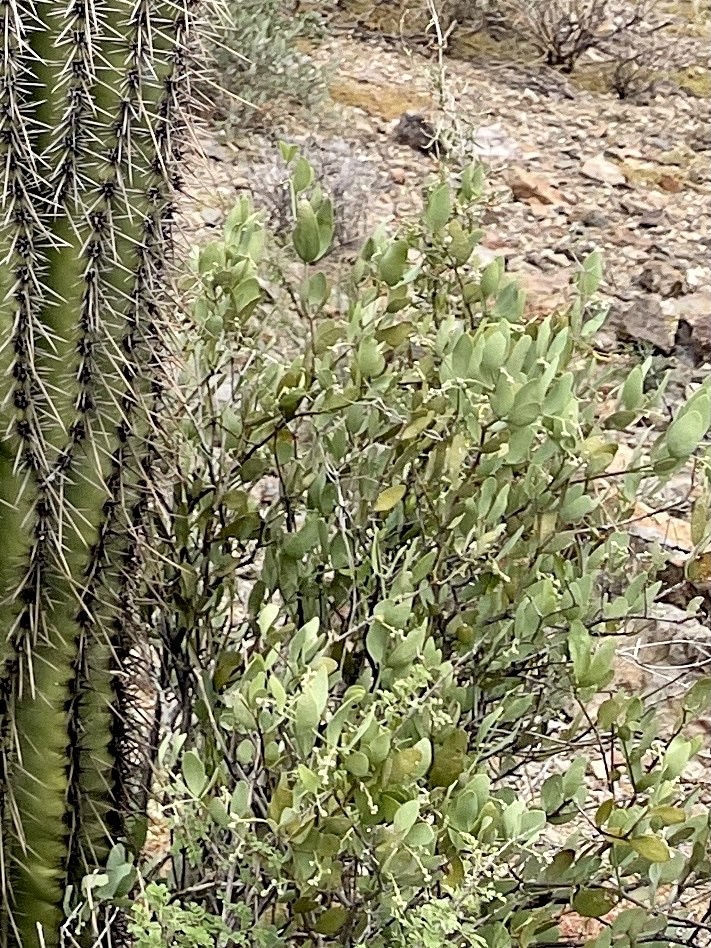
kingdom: Plantae
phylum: Tracheophyta
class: Magnoliopsida
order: Caryophyllales
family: Simmondsiaceae
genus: Simmondsia
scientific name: Simmondsia chinensis
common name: Jojoba
